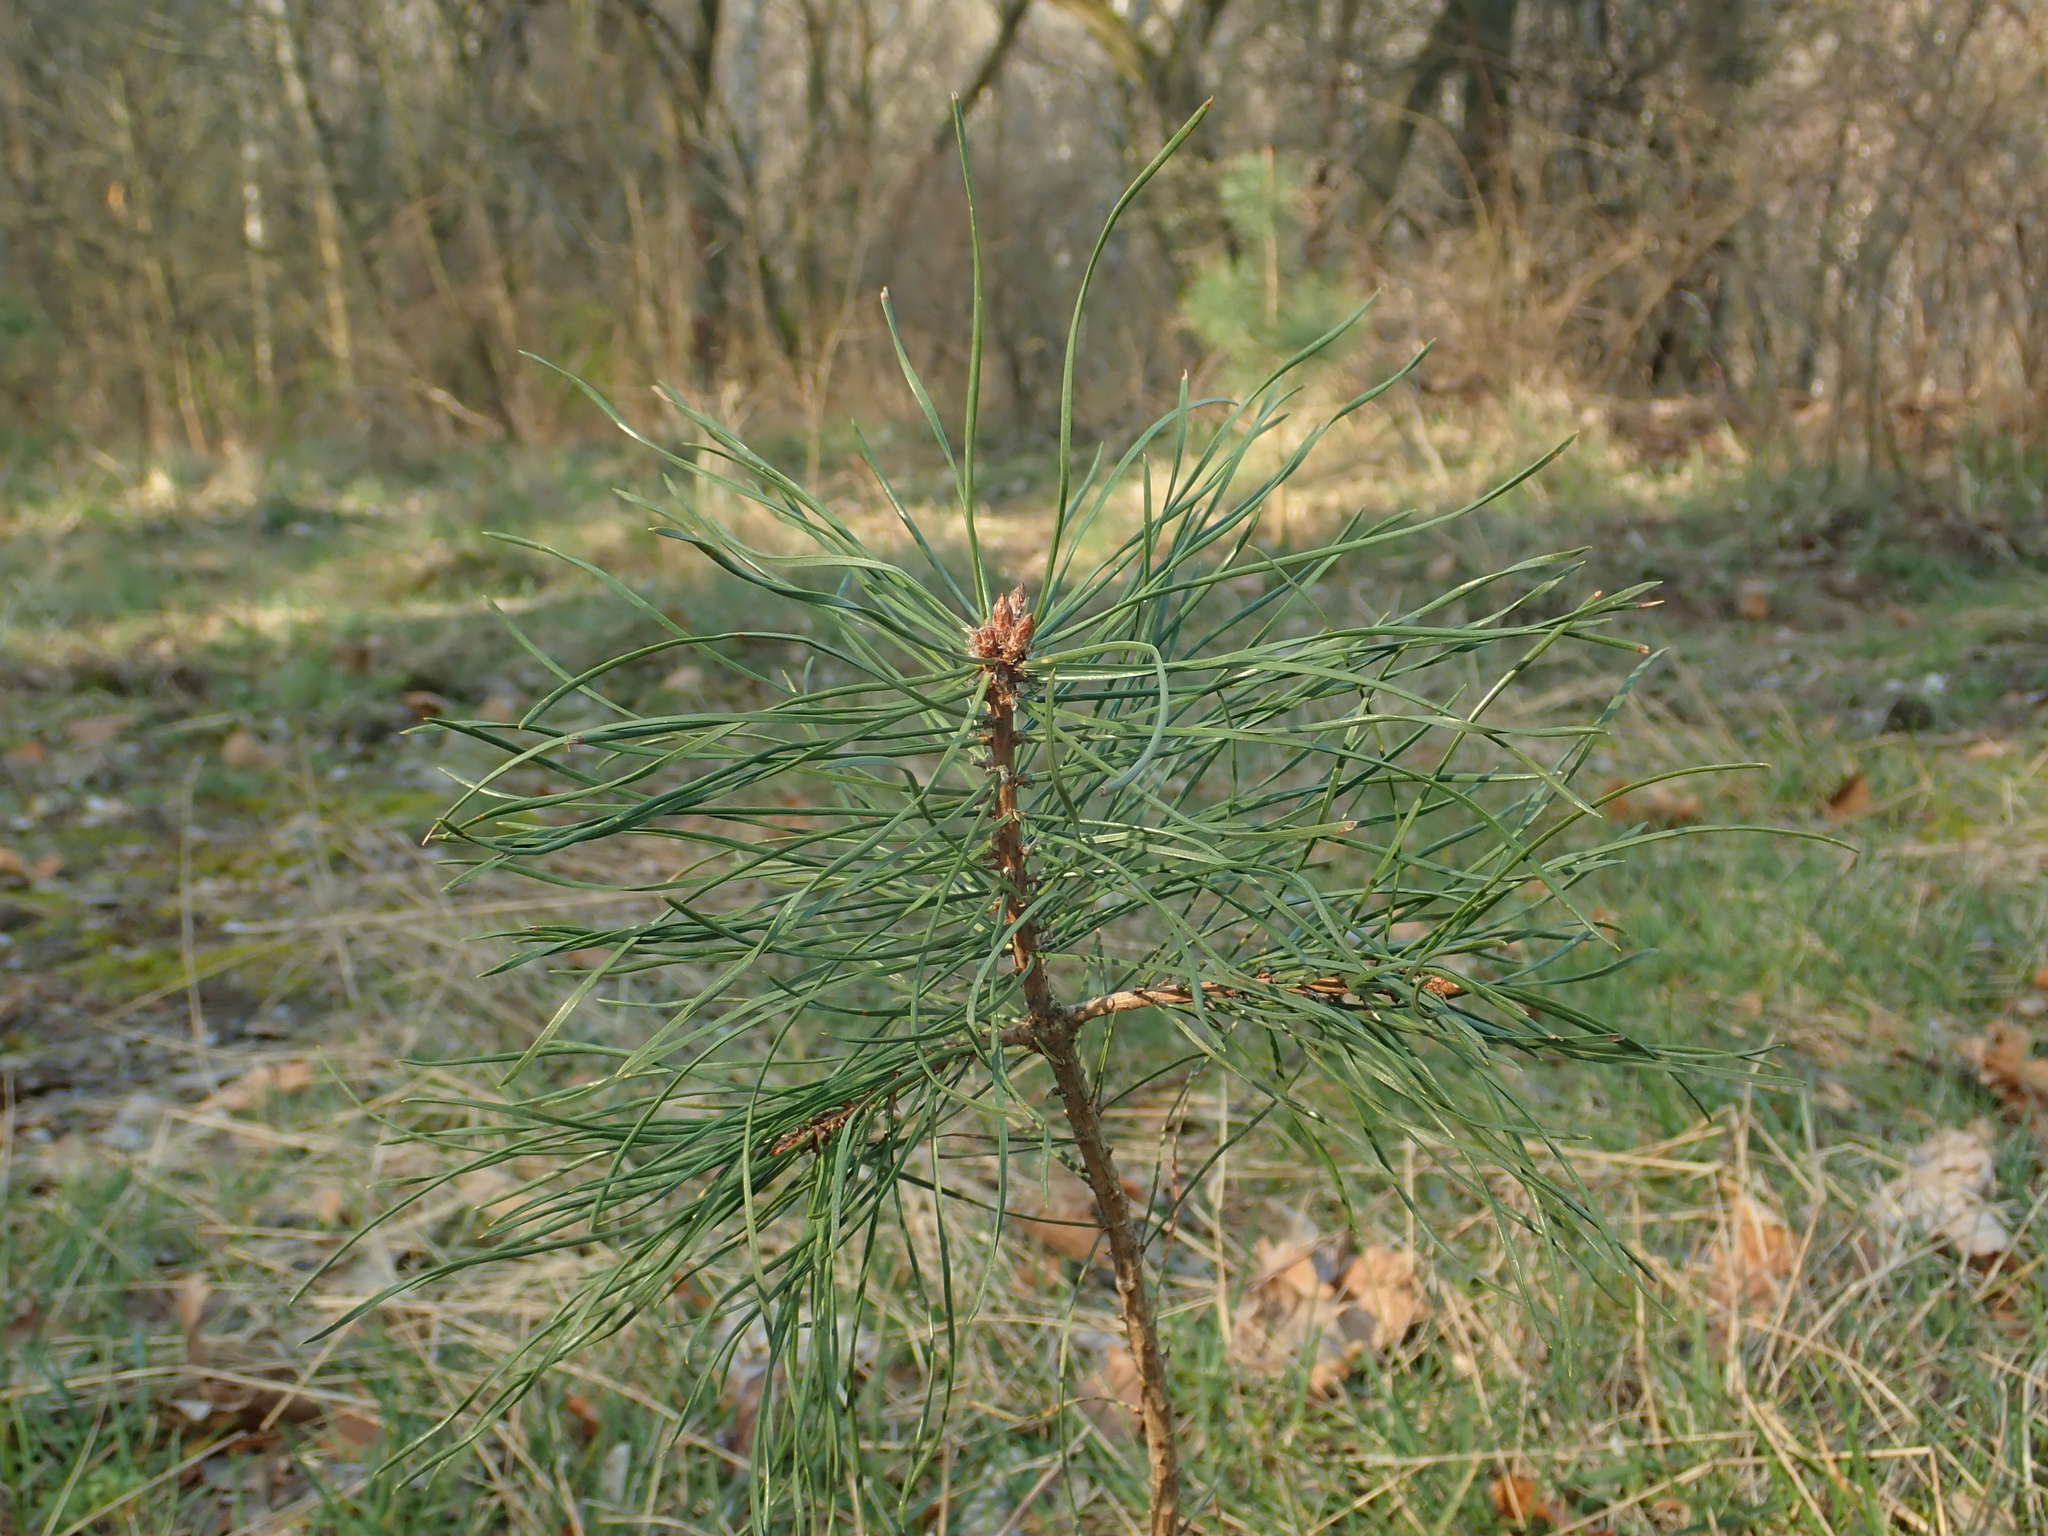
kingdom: Plantae
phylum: Tracheophyta
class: Pinopsida
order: Pinales
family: Pinaceae
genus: Pinus
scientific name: Pinus sylvestris
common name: Scots pine
